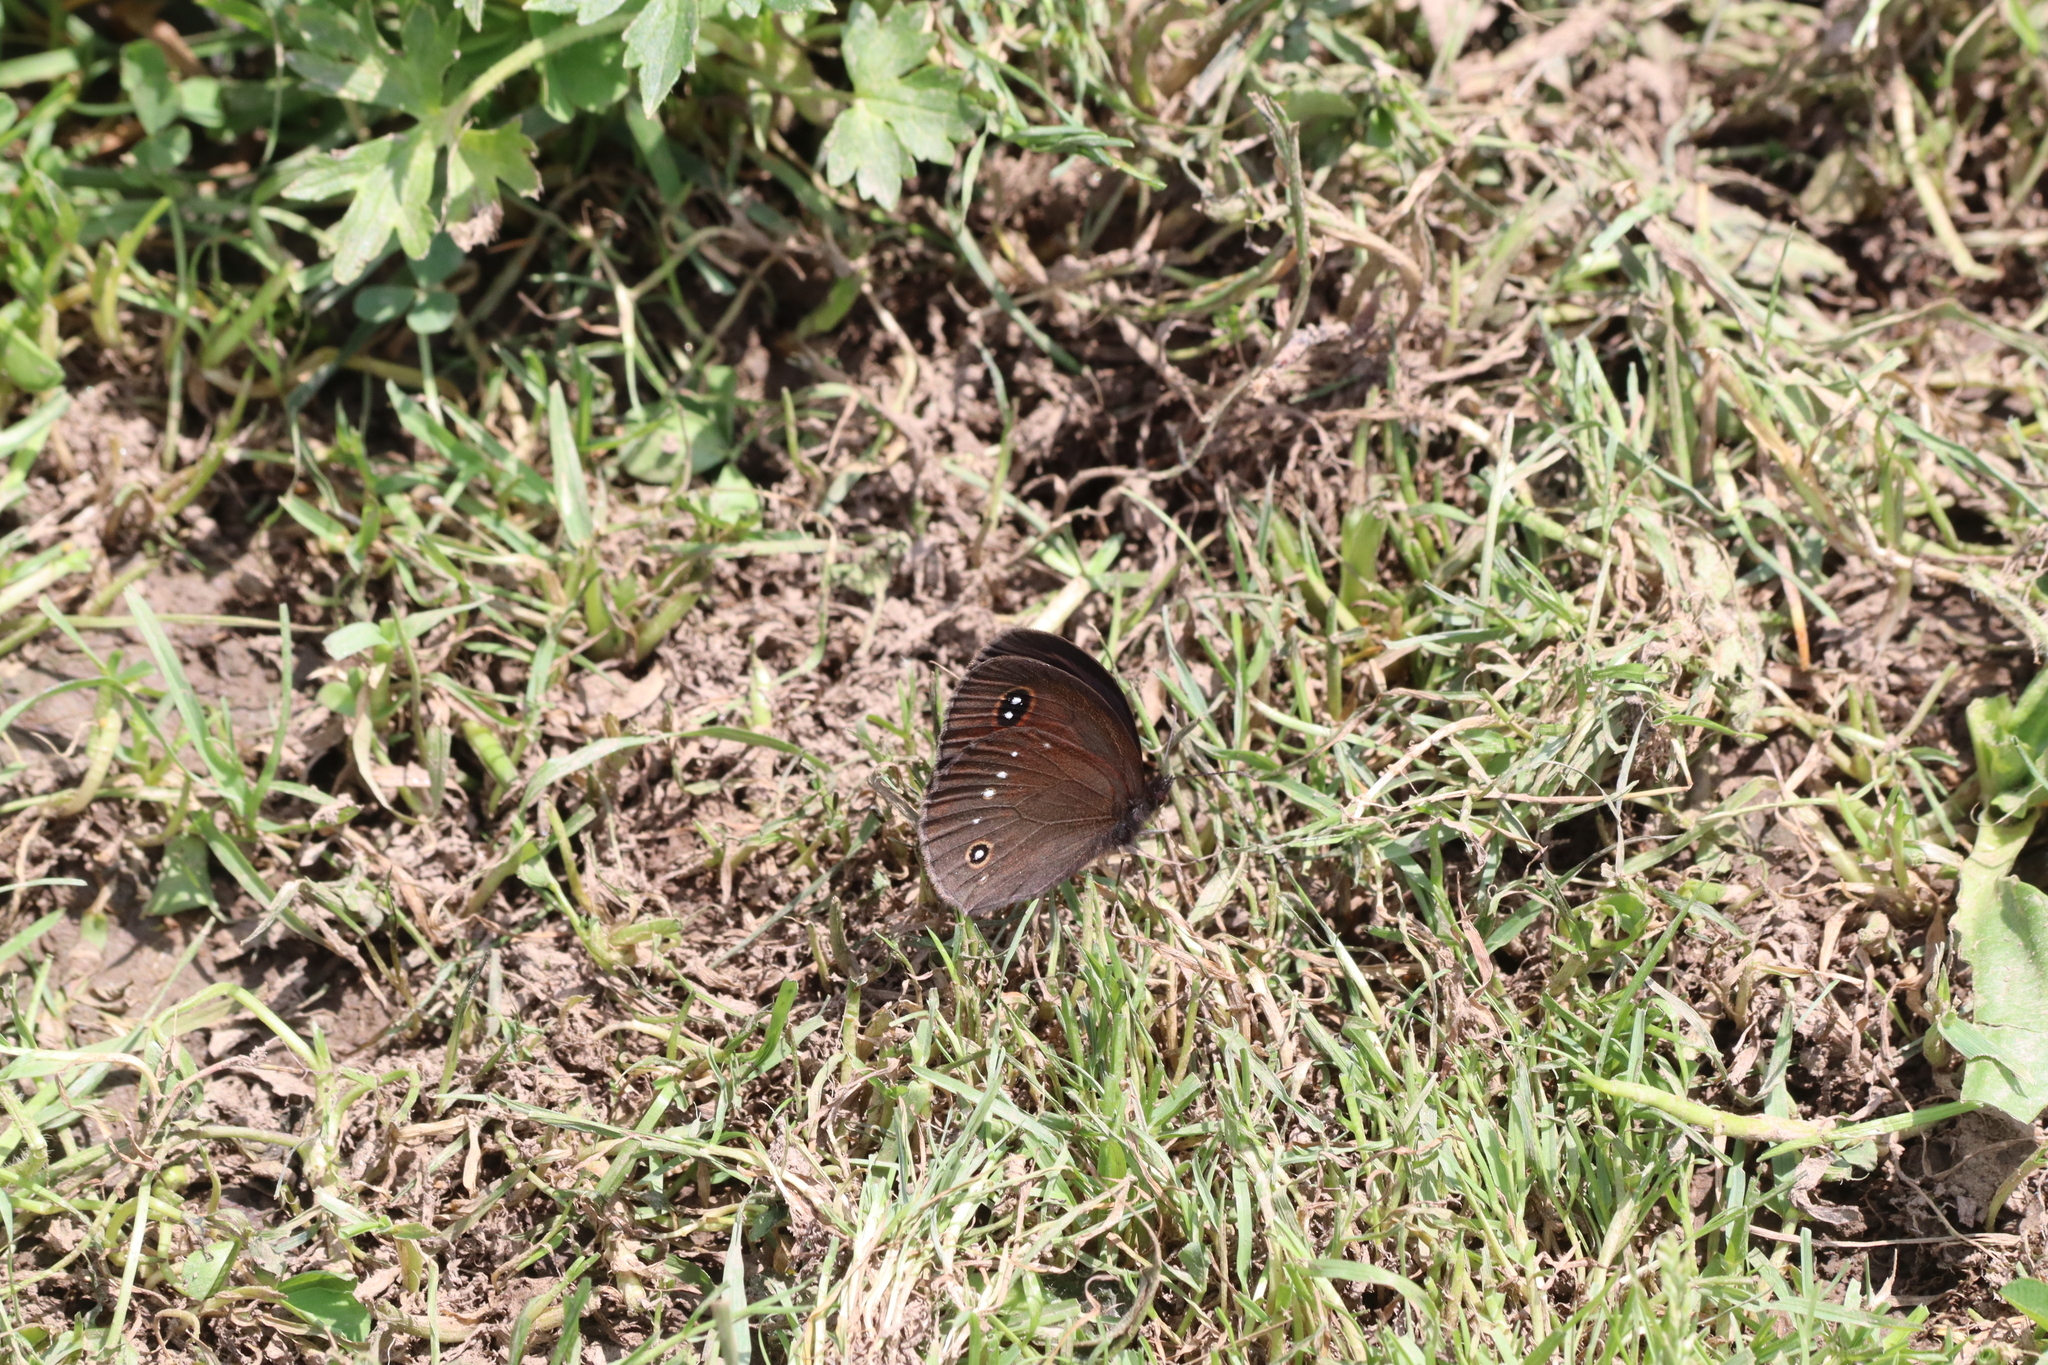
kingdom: Animalia
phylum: Arthropoda
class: Insecta
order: Lepidoptera
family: Nymphalidae
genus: Callerebia
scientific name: Callerebia nirmala
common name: Common argus
